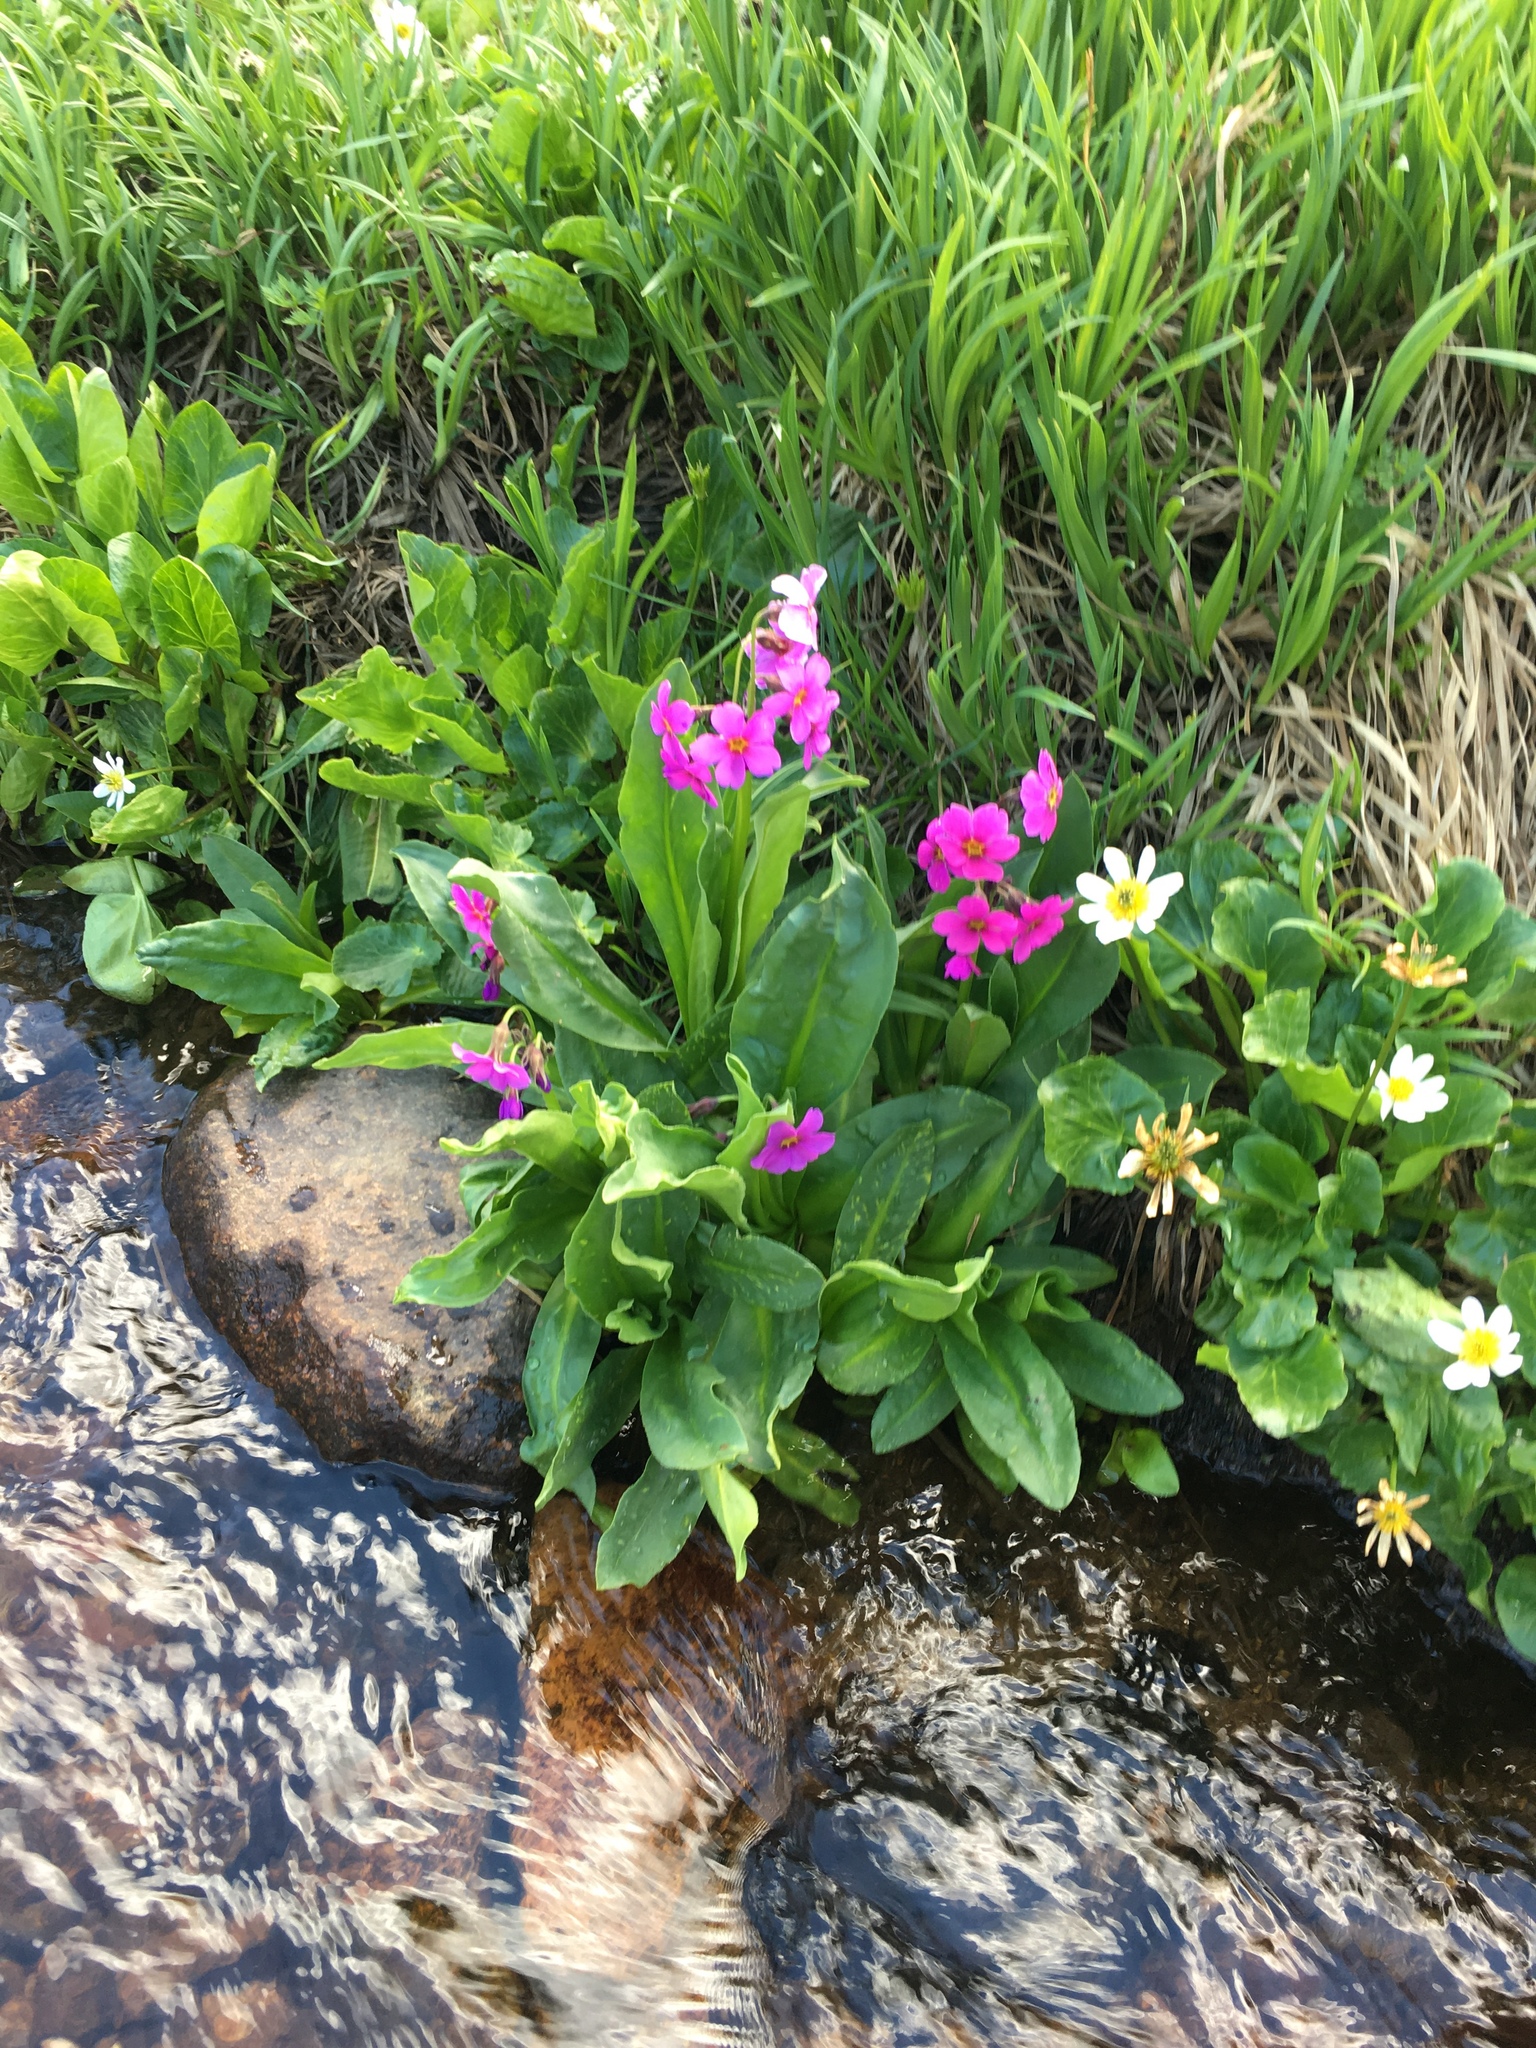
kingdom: Plantae
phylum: Tracheophyta
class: Magnoliopsida
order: Ericales
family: Primulaceae
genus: Primula
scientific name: Primula parryi
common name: Parry's primrose
